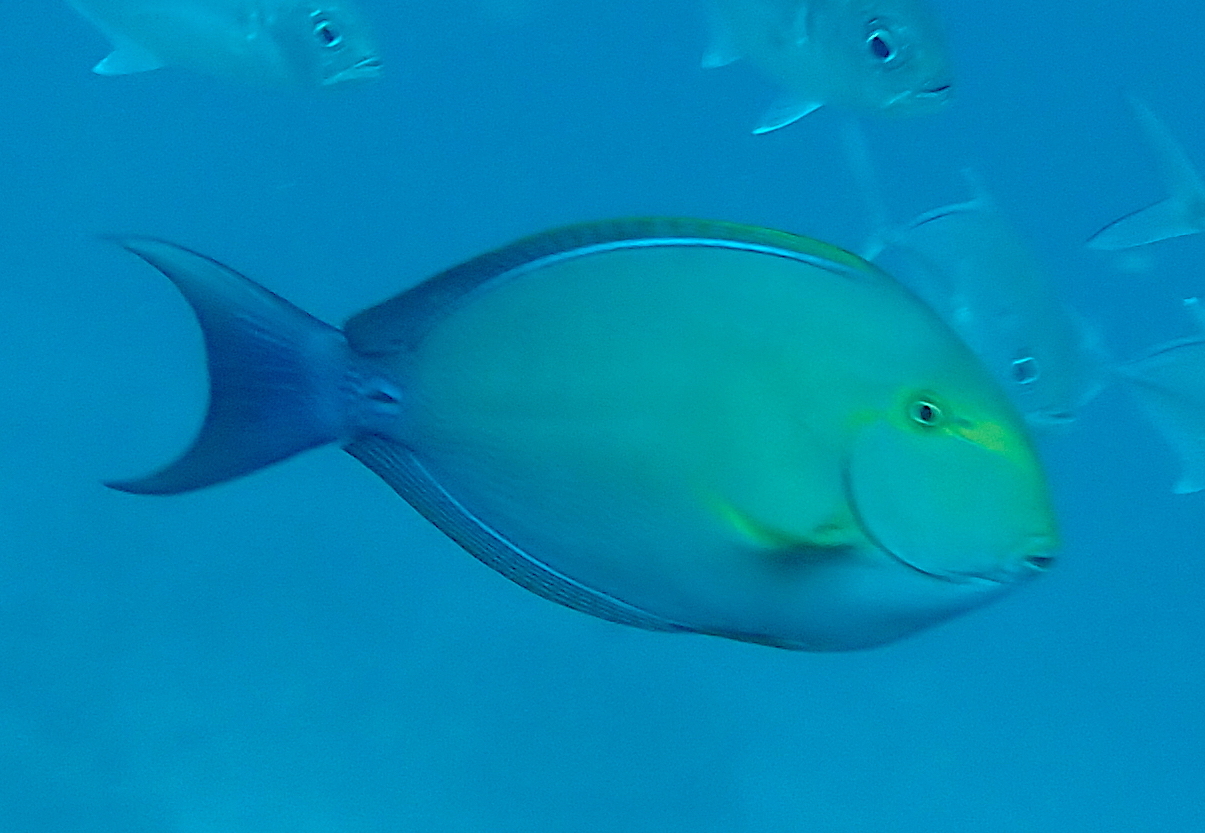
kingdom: Animalia
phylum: Chordata
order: Perciformes
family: Acanthuridae
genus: Acanthurus
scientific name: Acanthurus xanthopterus
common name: Cuvier's surgeonfish
